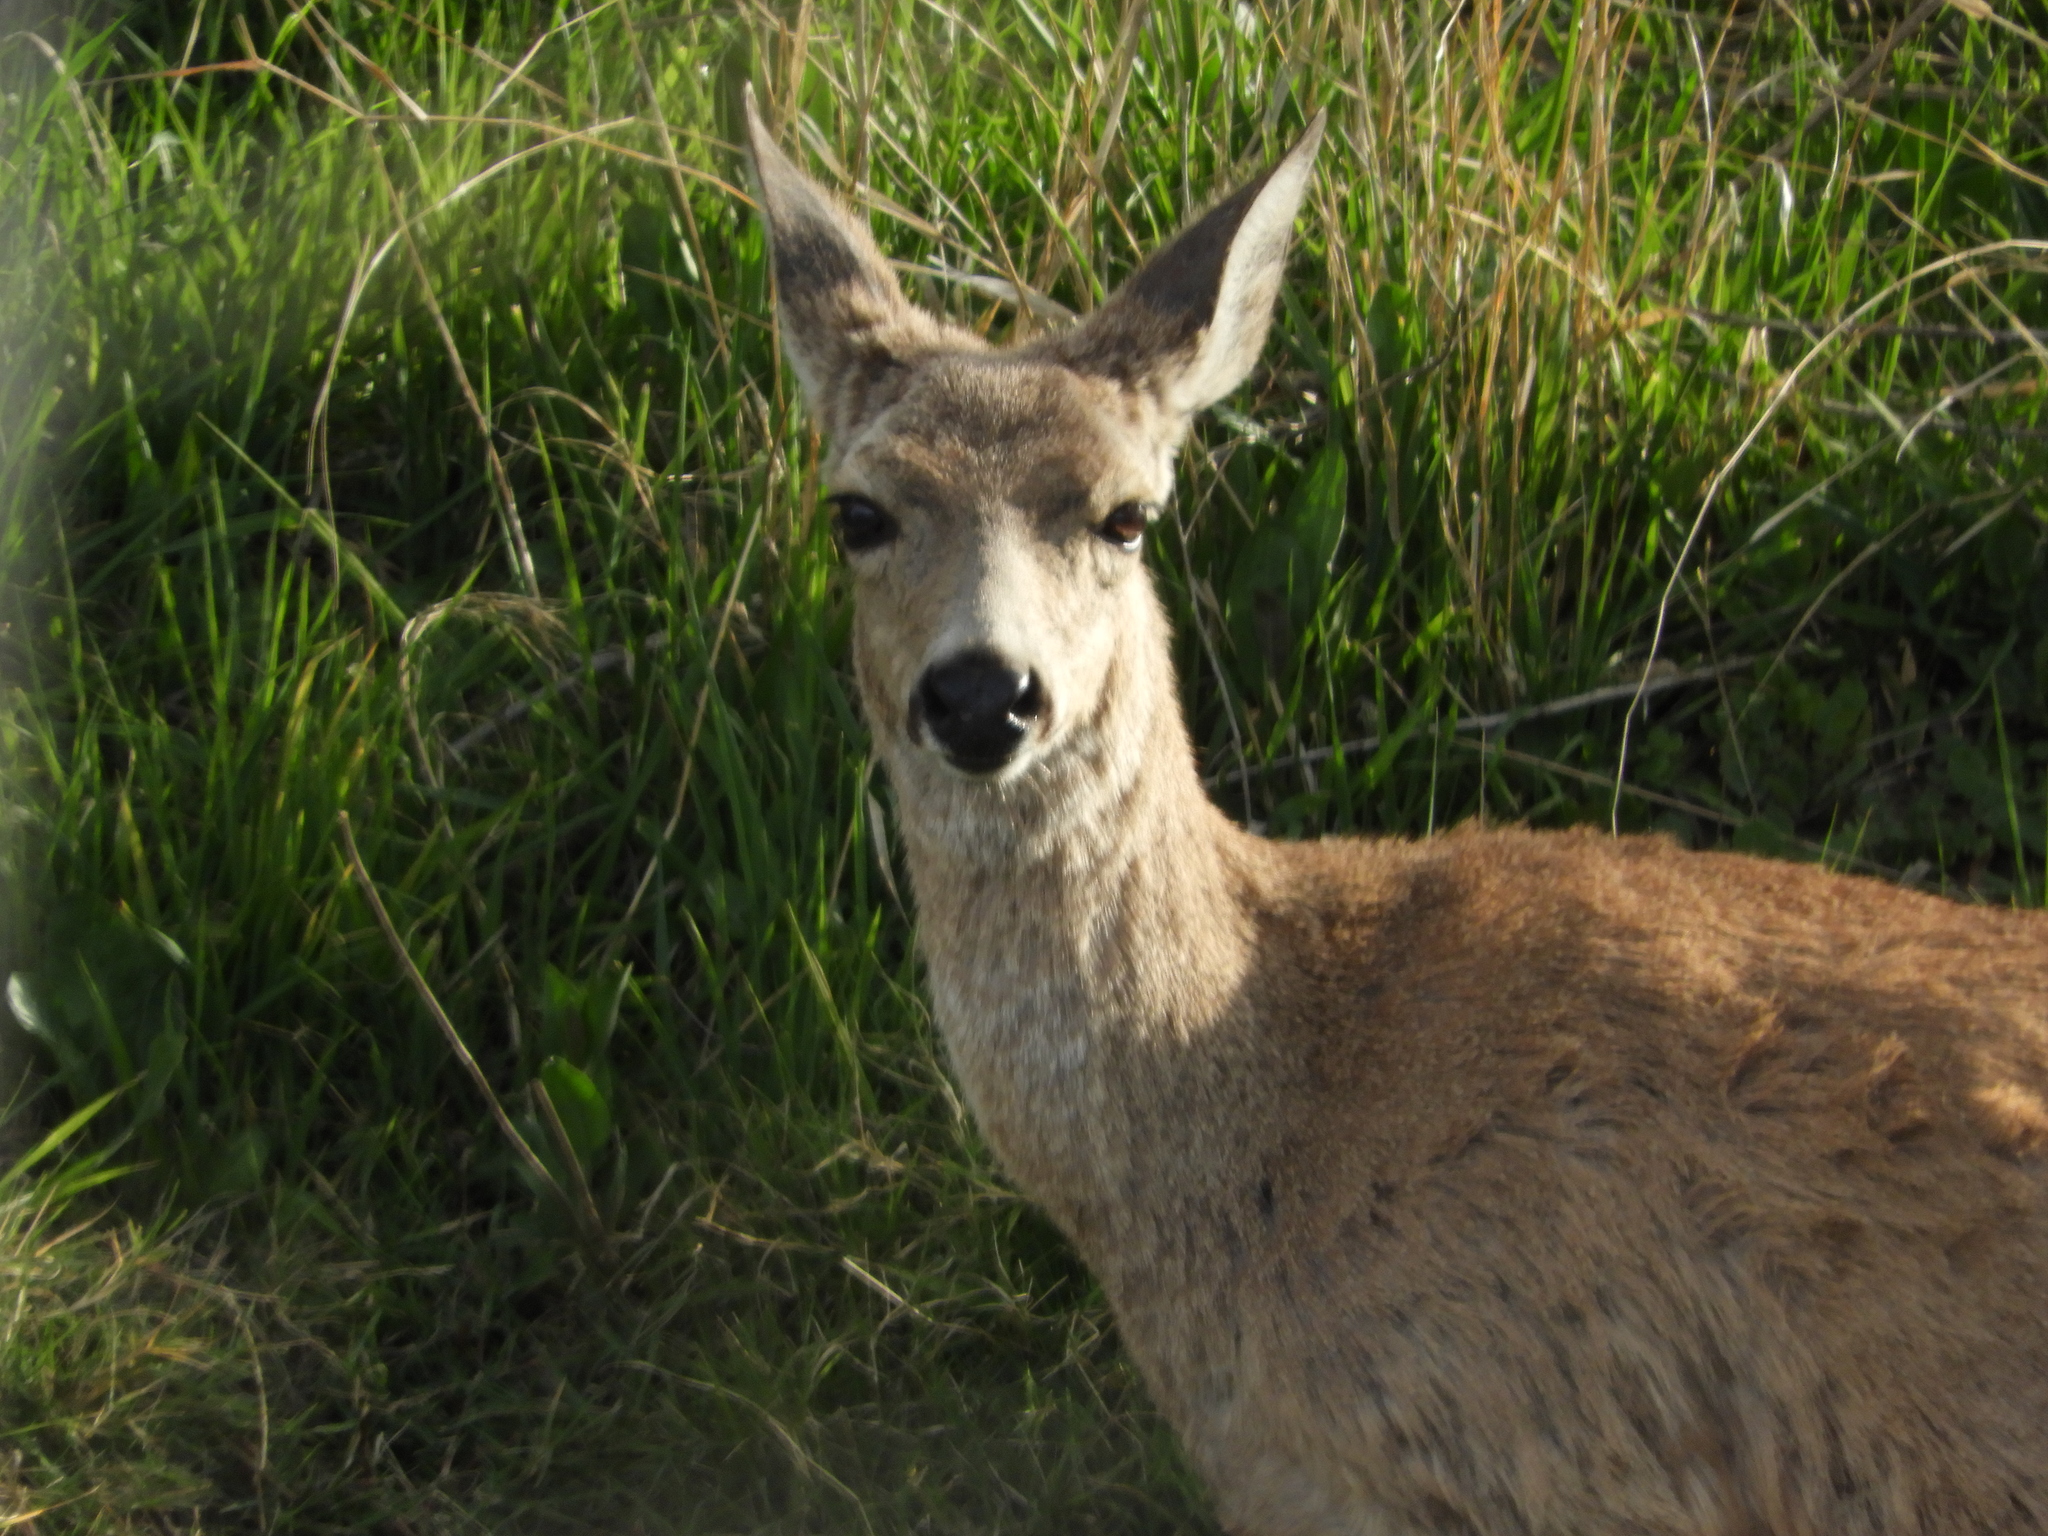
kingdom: Animalia
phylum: Chordata
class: Mammalia
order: Artiodactyla
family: Cervidae
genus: Odocoileus
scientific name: Odocoileus hemionus
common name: Mule deer
